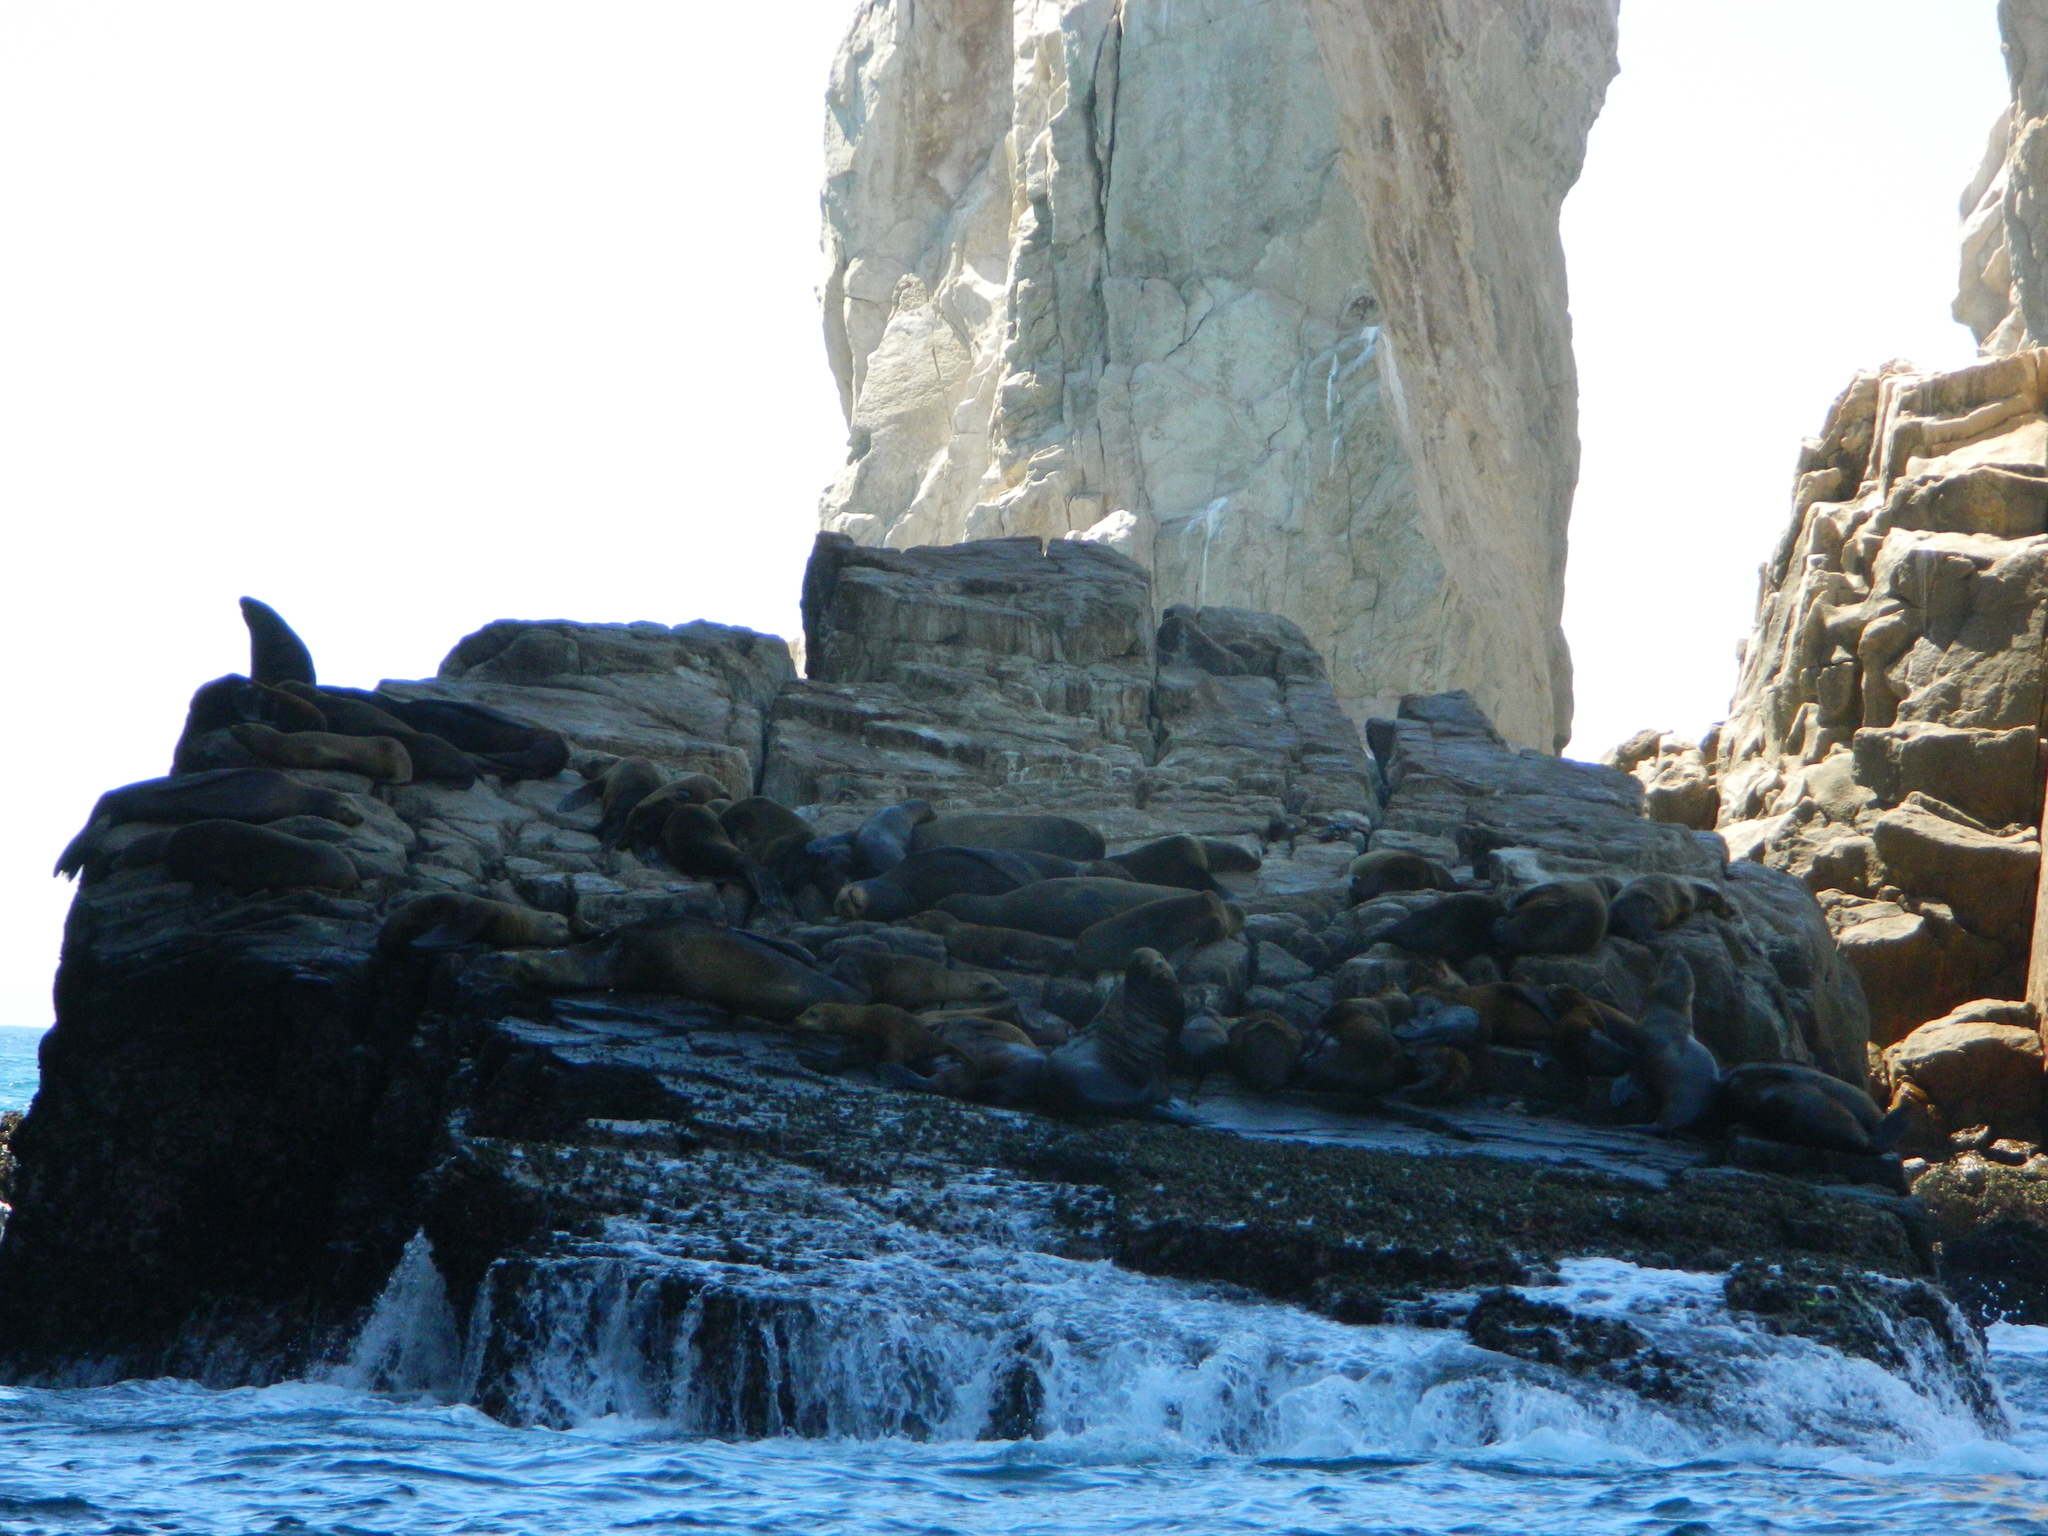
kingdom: Animalia
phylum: Chordata
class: Mammalia
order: Carnivora
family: Otariidae
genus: Zalophus
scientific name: Zalophus californianus
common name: California sea lion
